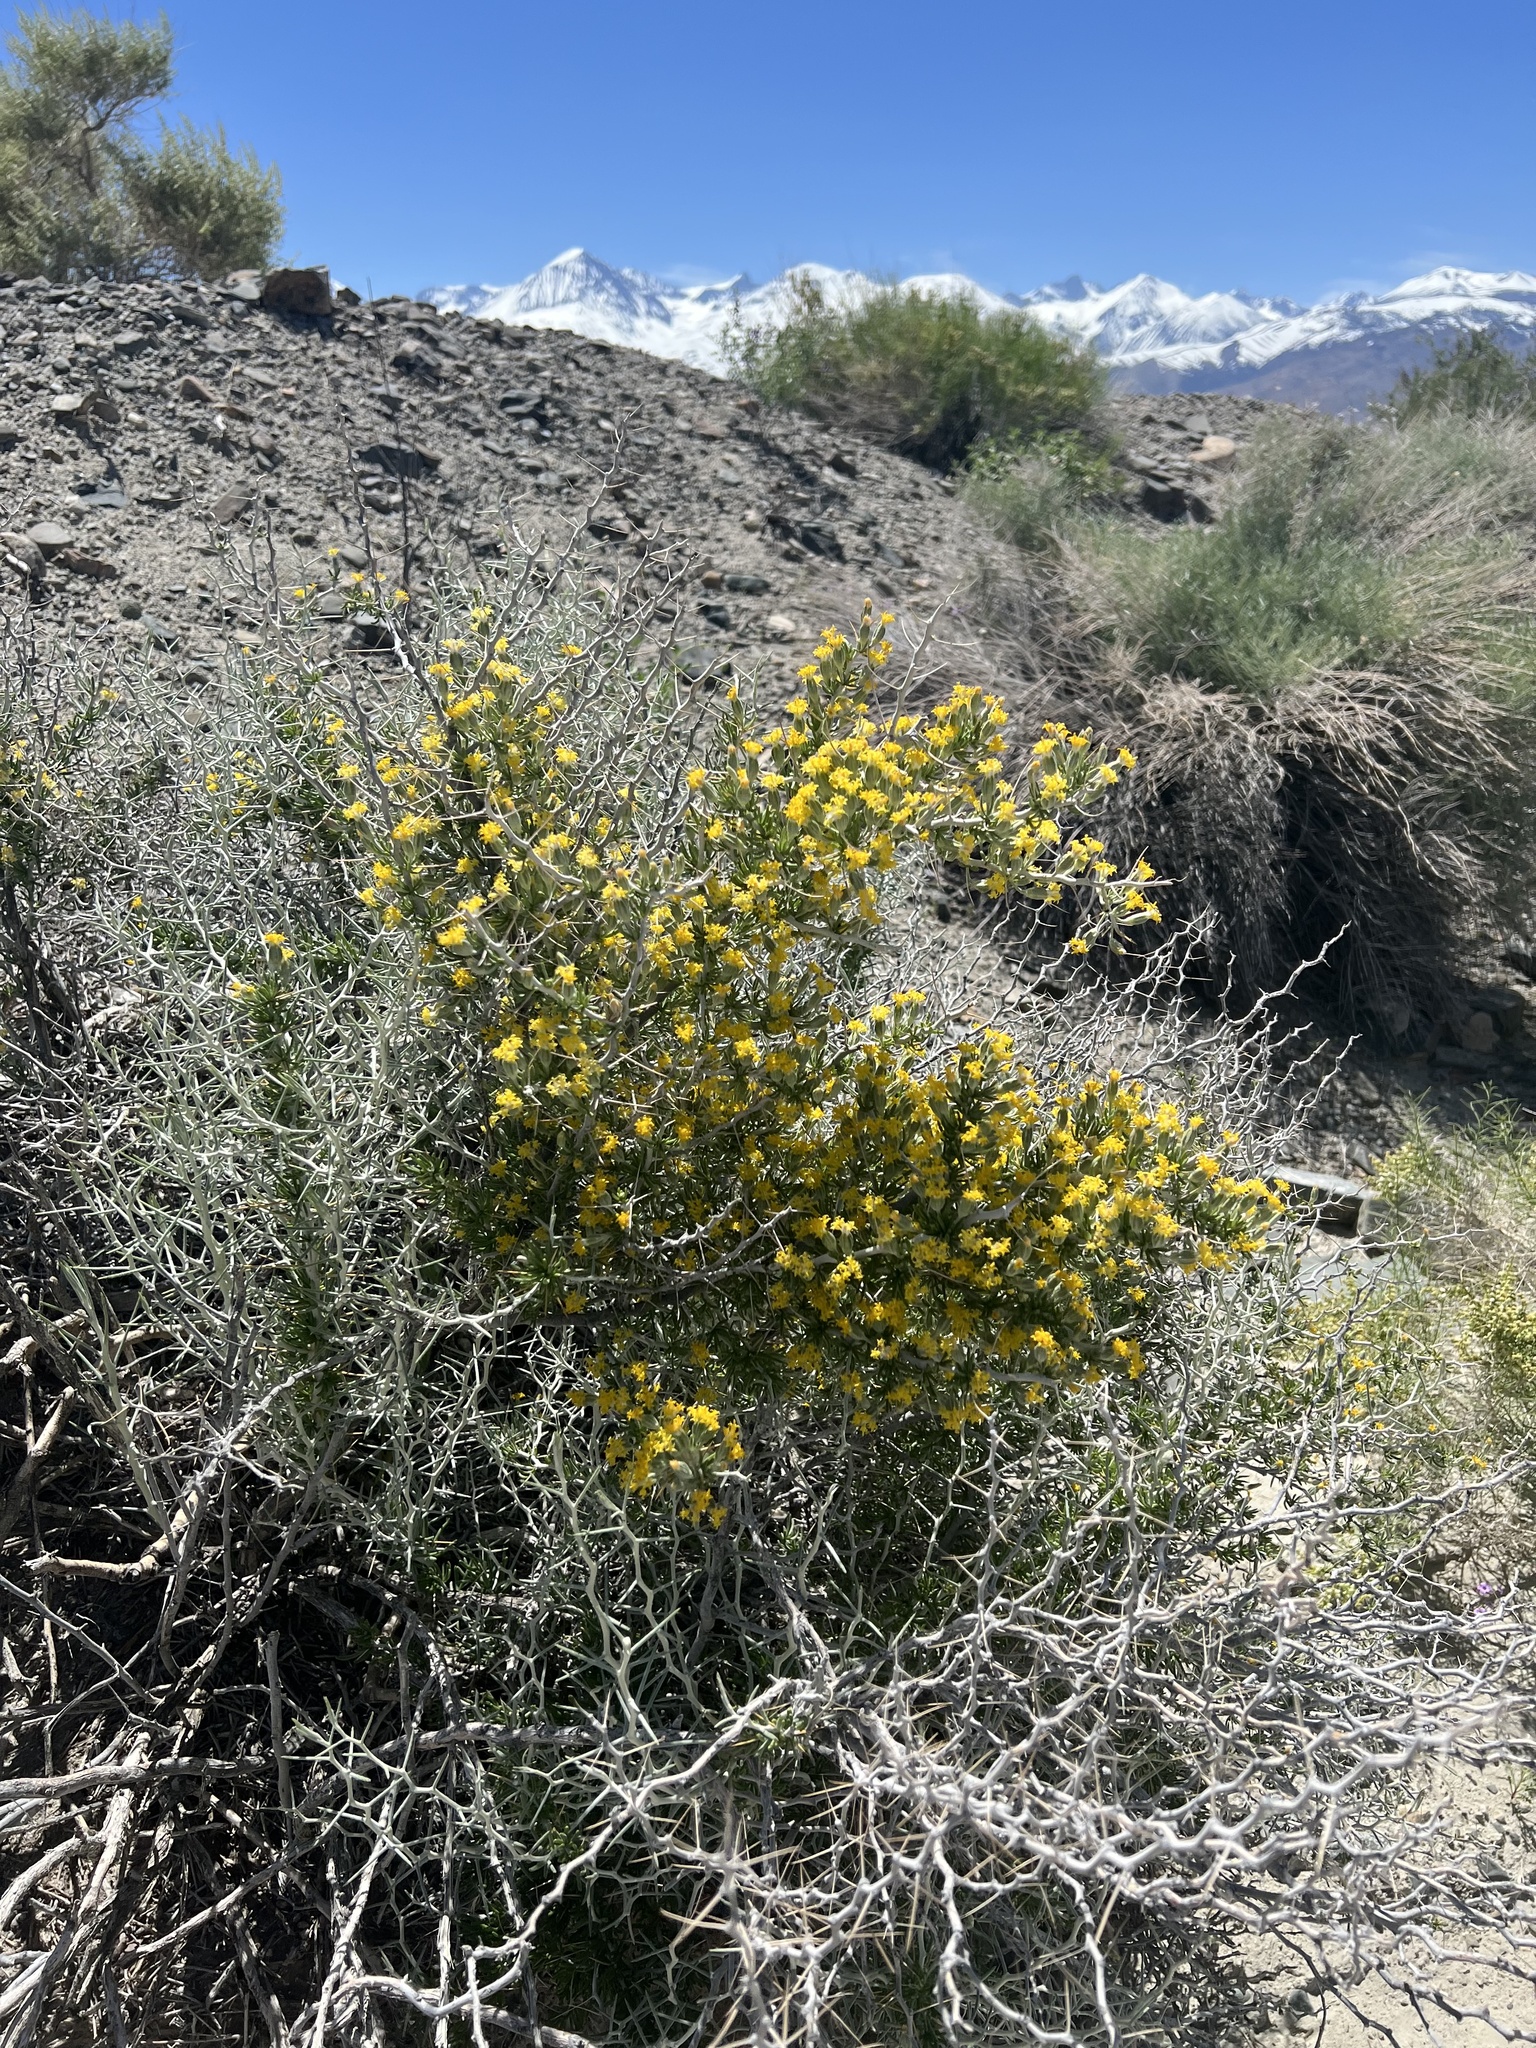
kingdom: Plantae
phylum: Tracheophyta
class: Magnoliopsida
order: Asterales
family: Asteraceae
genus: Tetradymia
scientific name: Tetradymia axillaris
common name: Long-spine horsebrush
